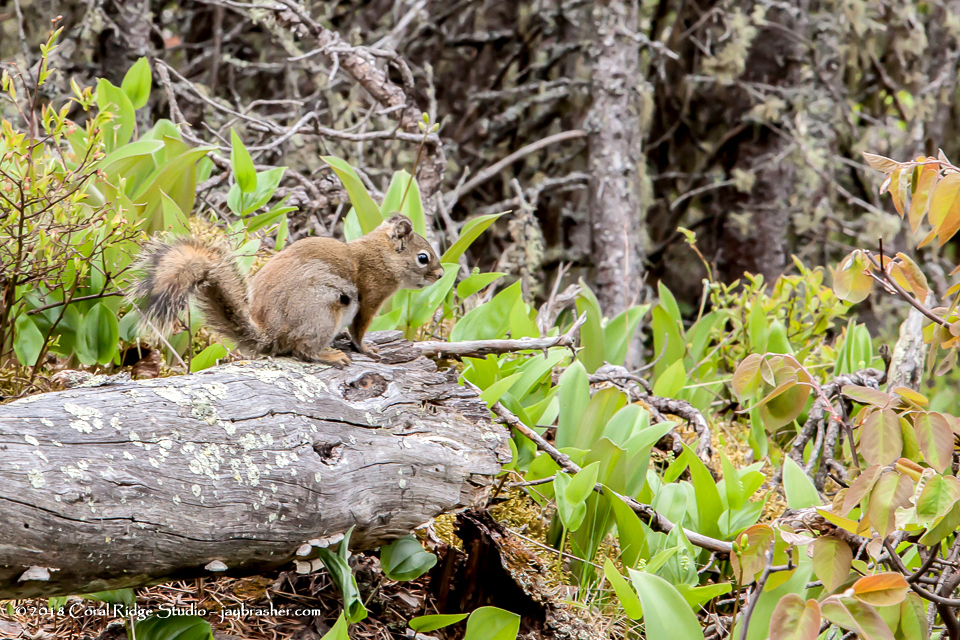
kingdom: Animalia
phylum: Chordata
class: Mammalia
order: Rodentia
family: Sciuridae
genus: Tamiasciurus
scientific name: Tamiasciurus hudsonicus
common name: Red squirrel
